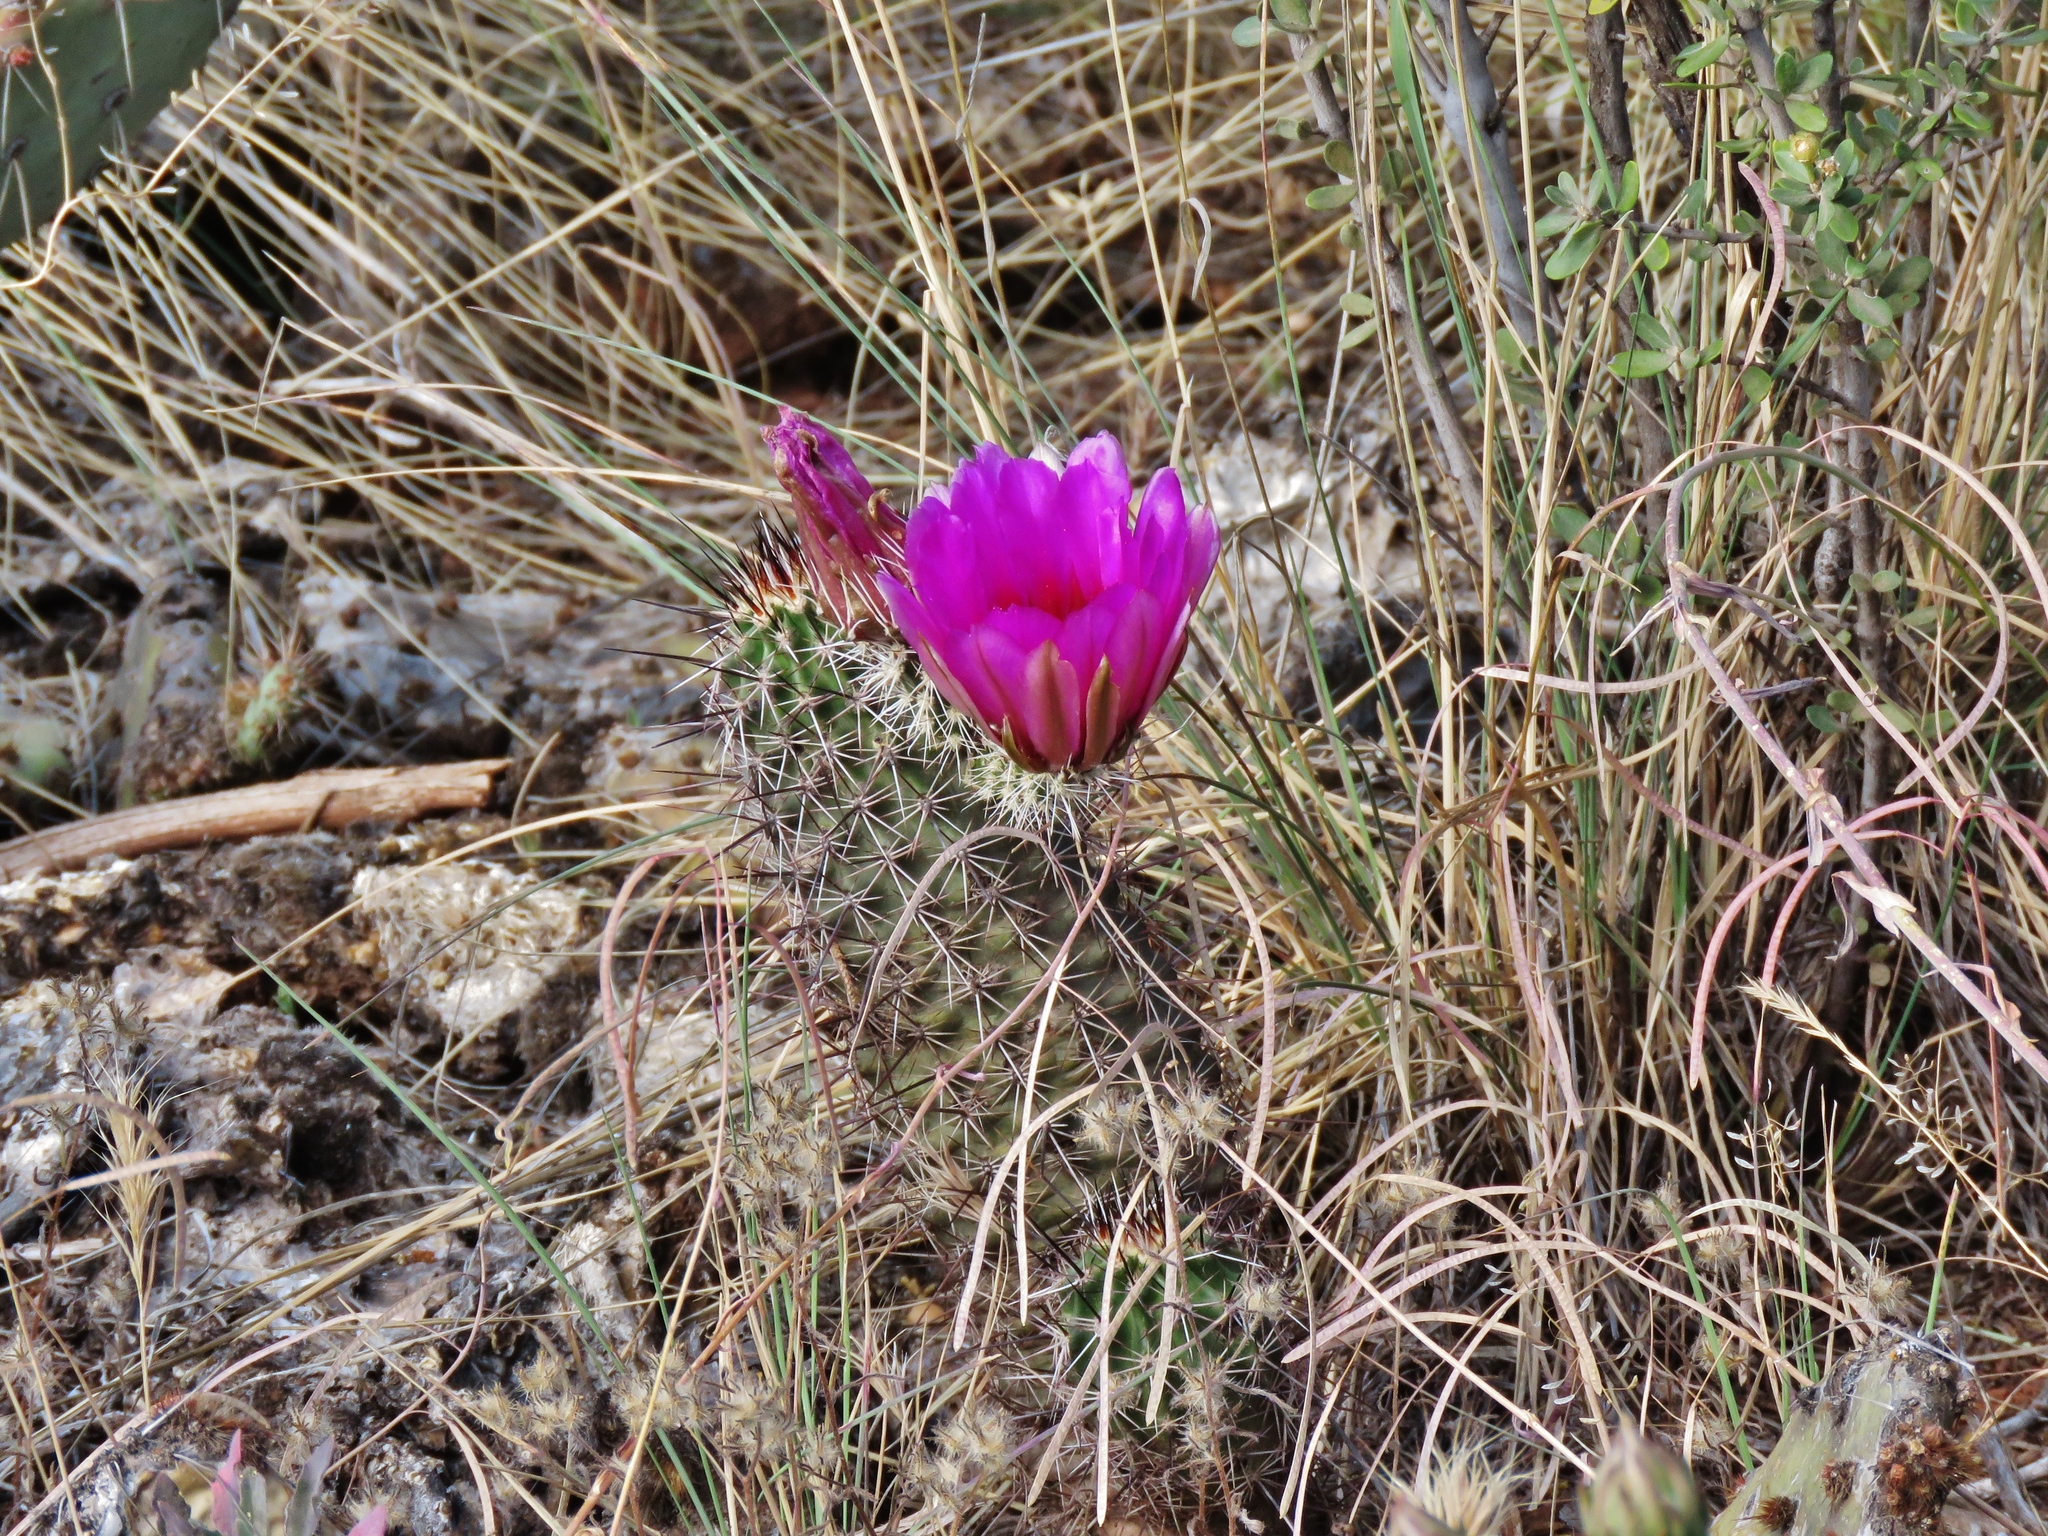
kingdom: Plantae
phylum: Tracheophyta
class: Magnoliopsida
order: Caryophyllales
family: Cactaceae
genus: Echinocereus
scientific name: Echinocereus fasciculatus
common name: Bundle hedgehog
